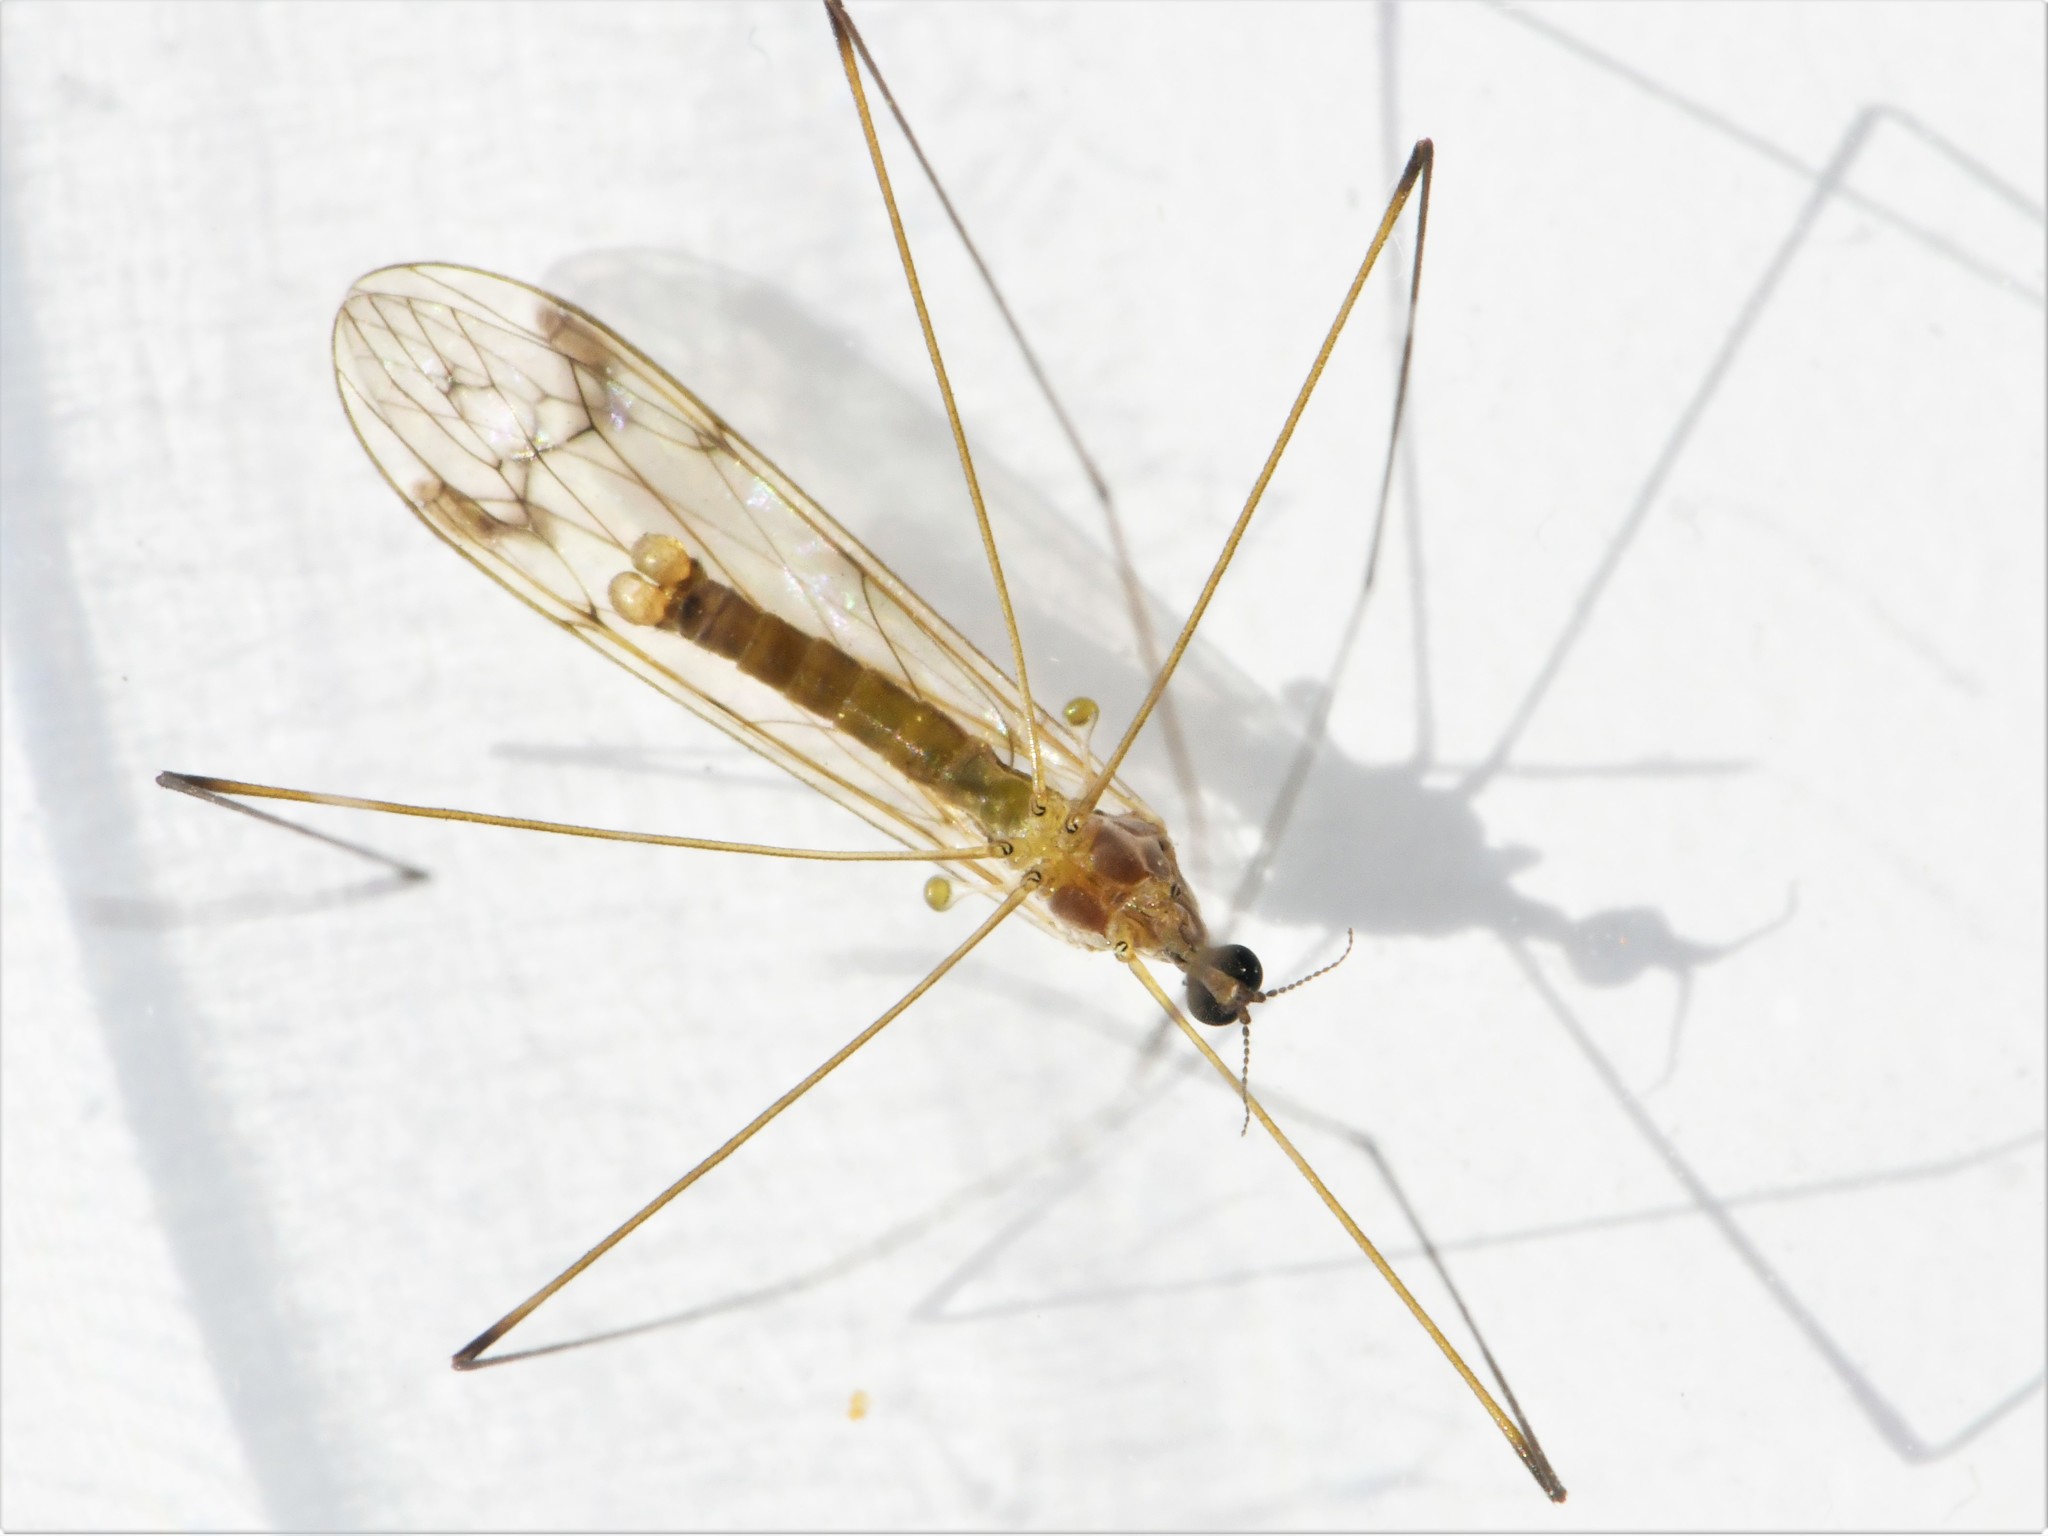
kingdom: Animalia
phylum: Arthropoda
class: Insecta
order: Diptera
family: Limoniidae
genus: Dicranomyia
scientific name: Dicranomyia chorea
